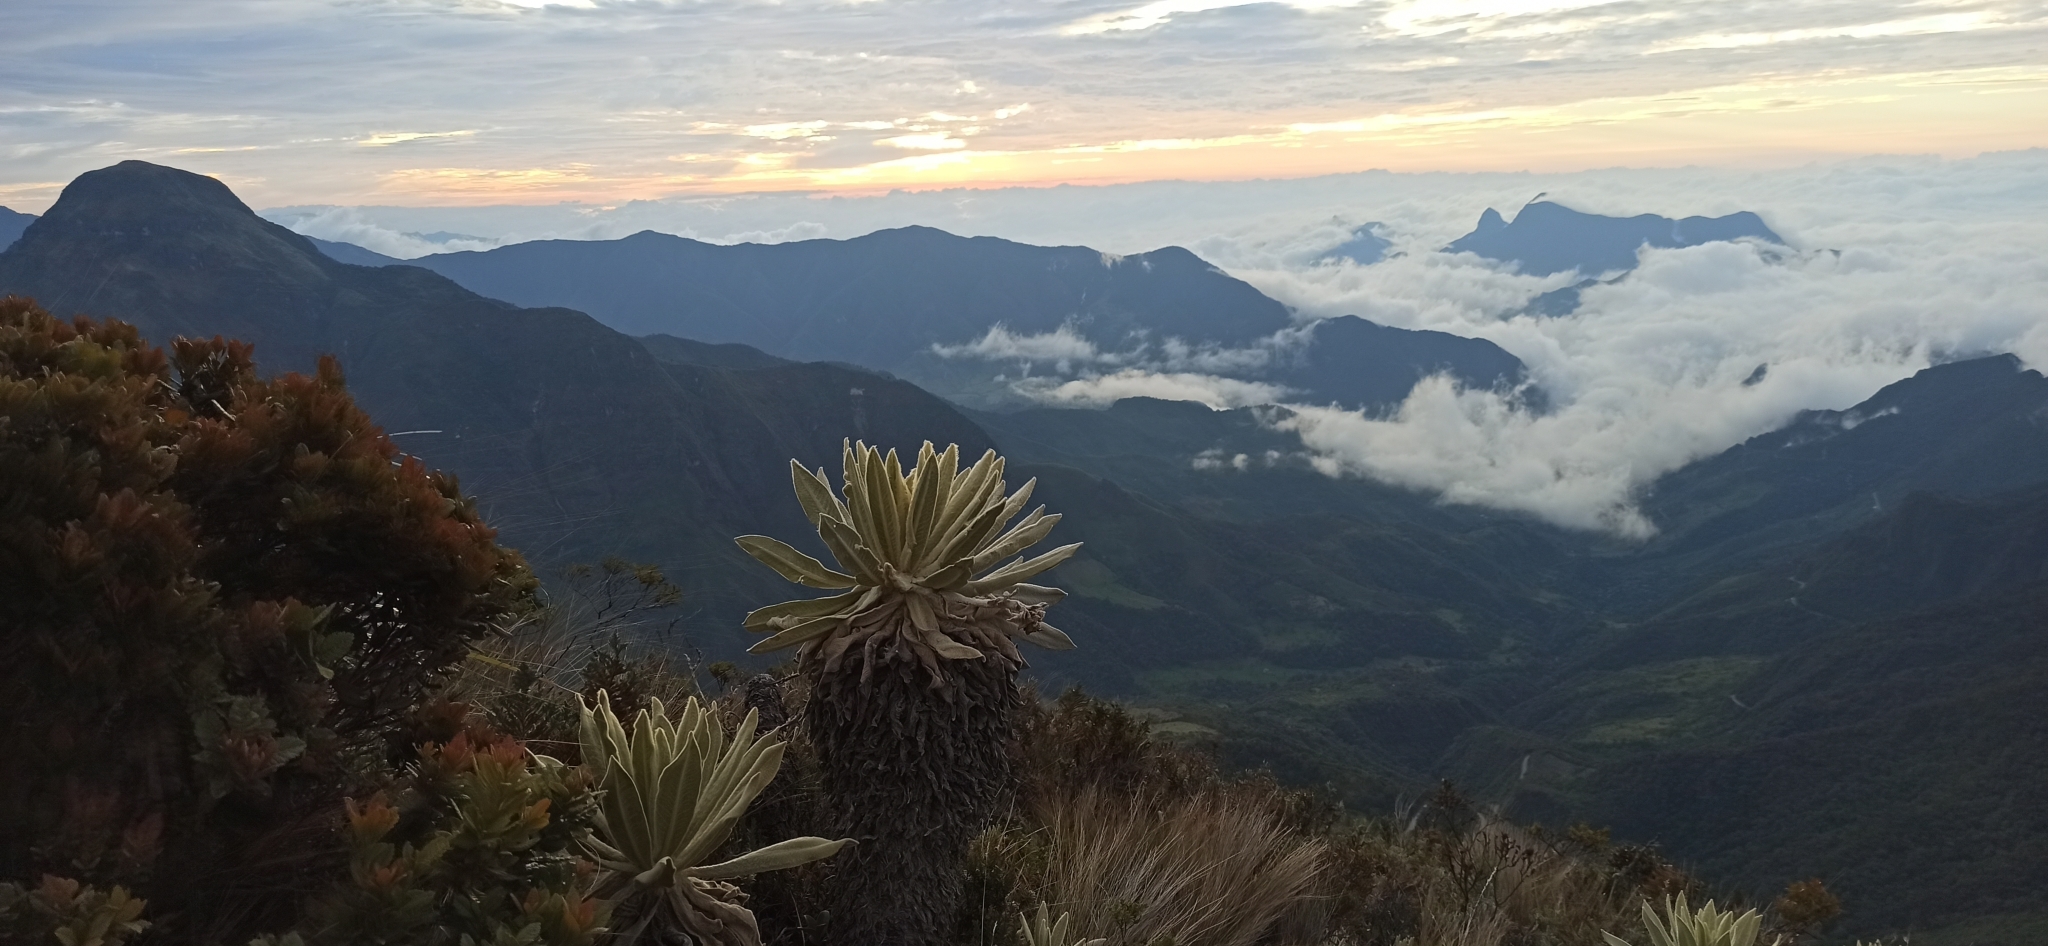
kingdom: Plantae
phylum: Tracheophyta
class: Magnoliopsida
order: Asterales
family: Asteraceae
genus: Espeletia
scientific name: Espeletia pycnophylla
